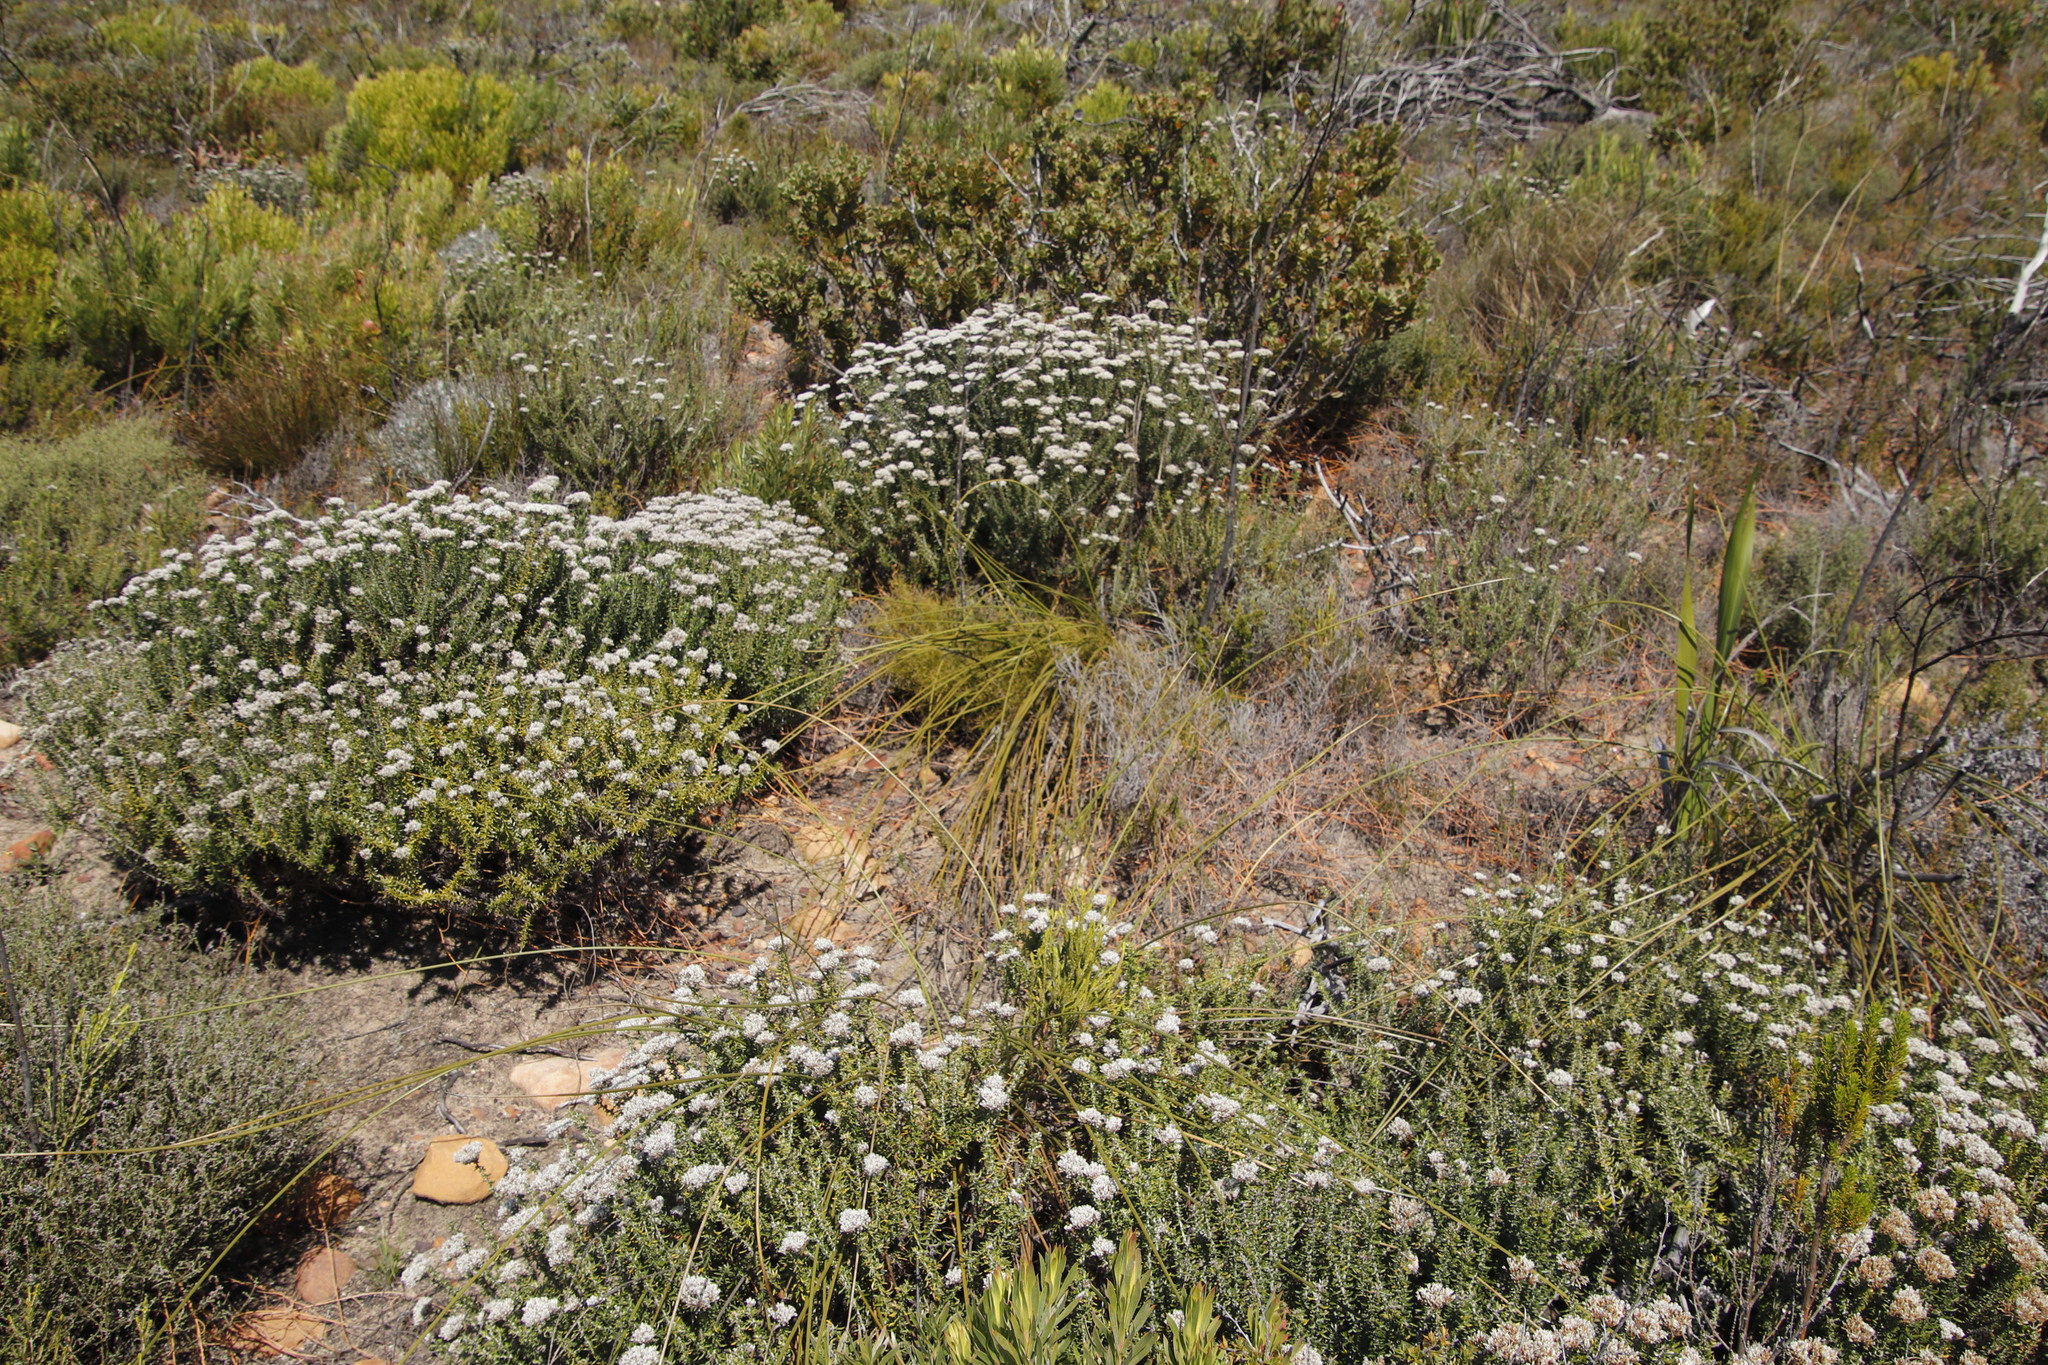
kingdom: Plantae
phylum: Tracheophyta
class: Magnoliopsida
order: Asterales
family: Asteraceae
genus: Metalasia
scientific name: Metalasia densa
